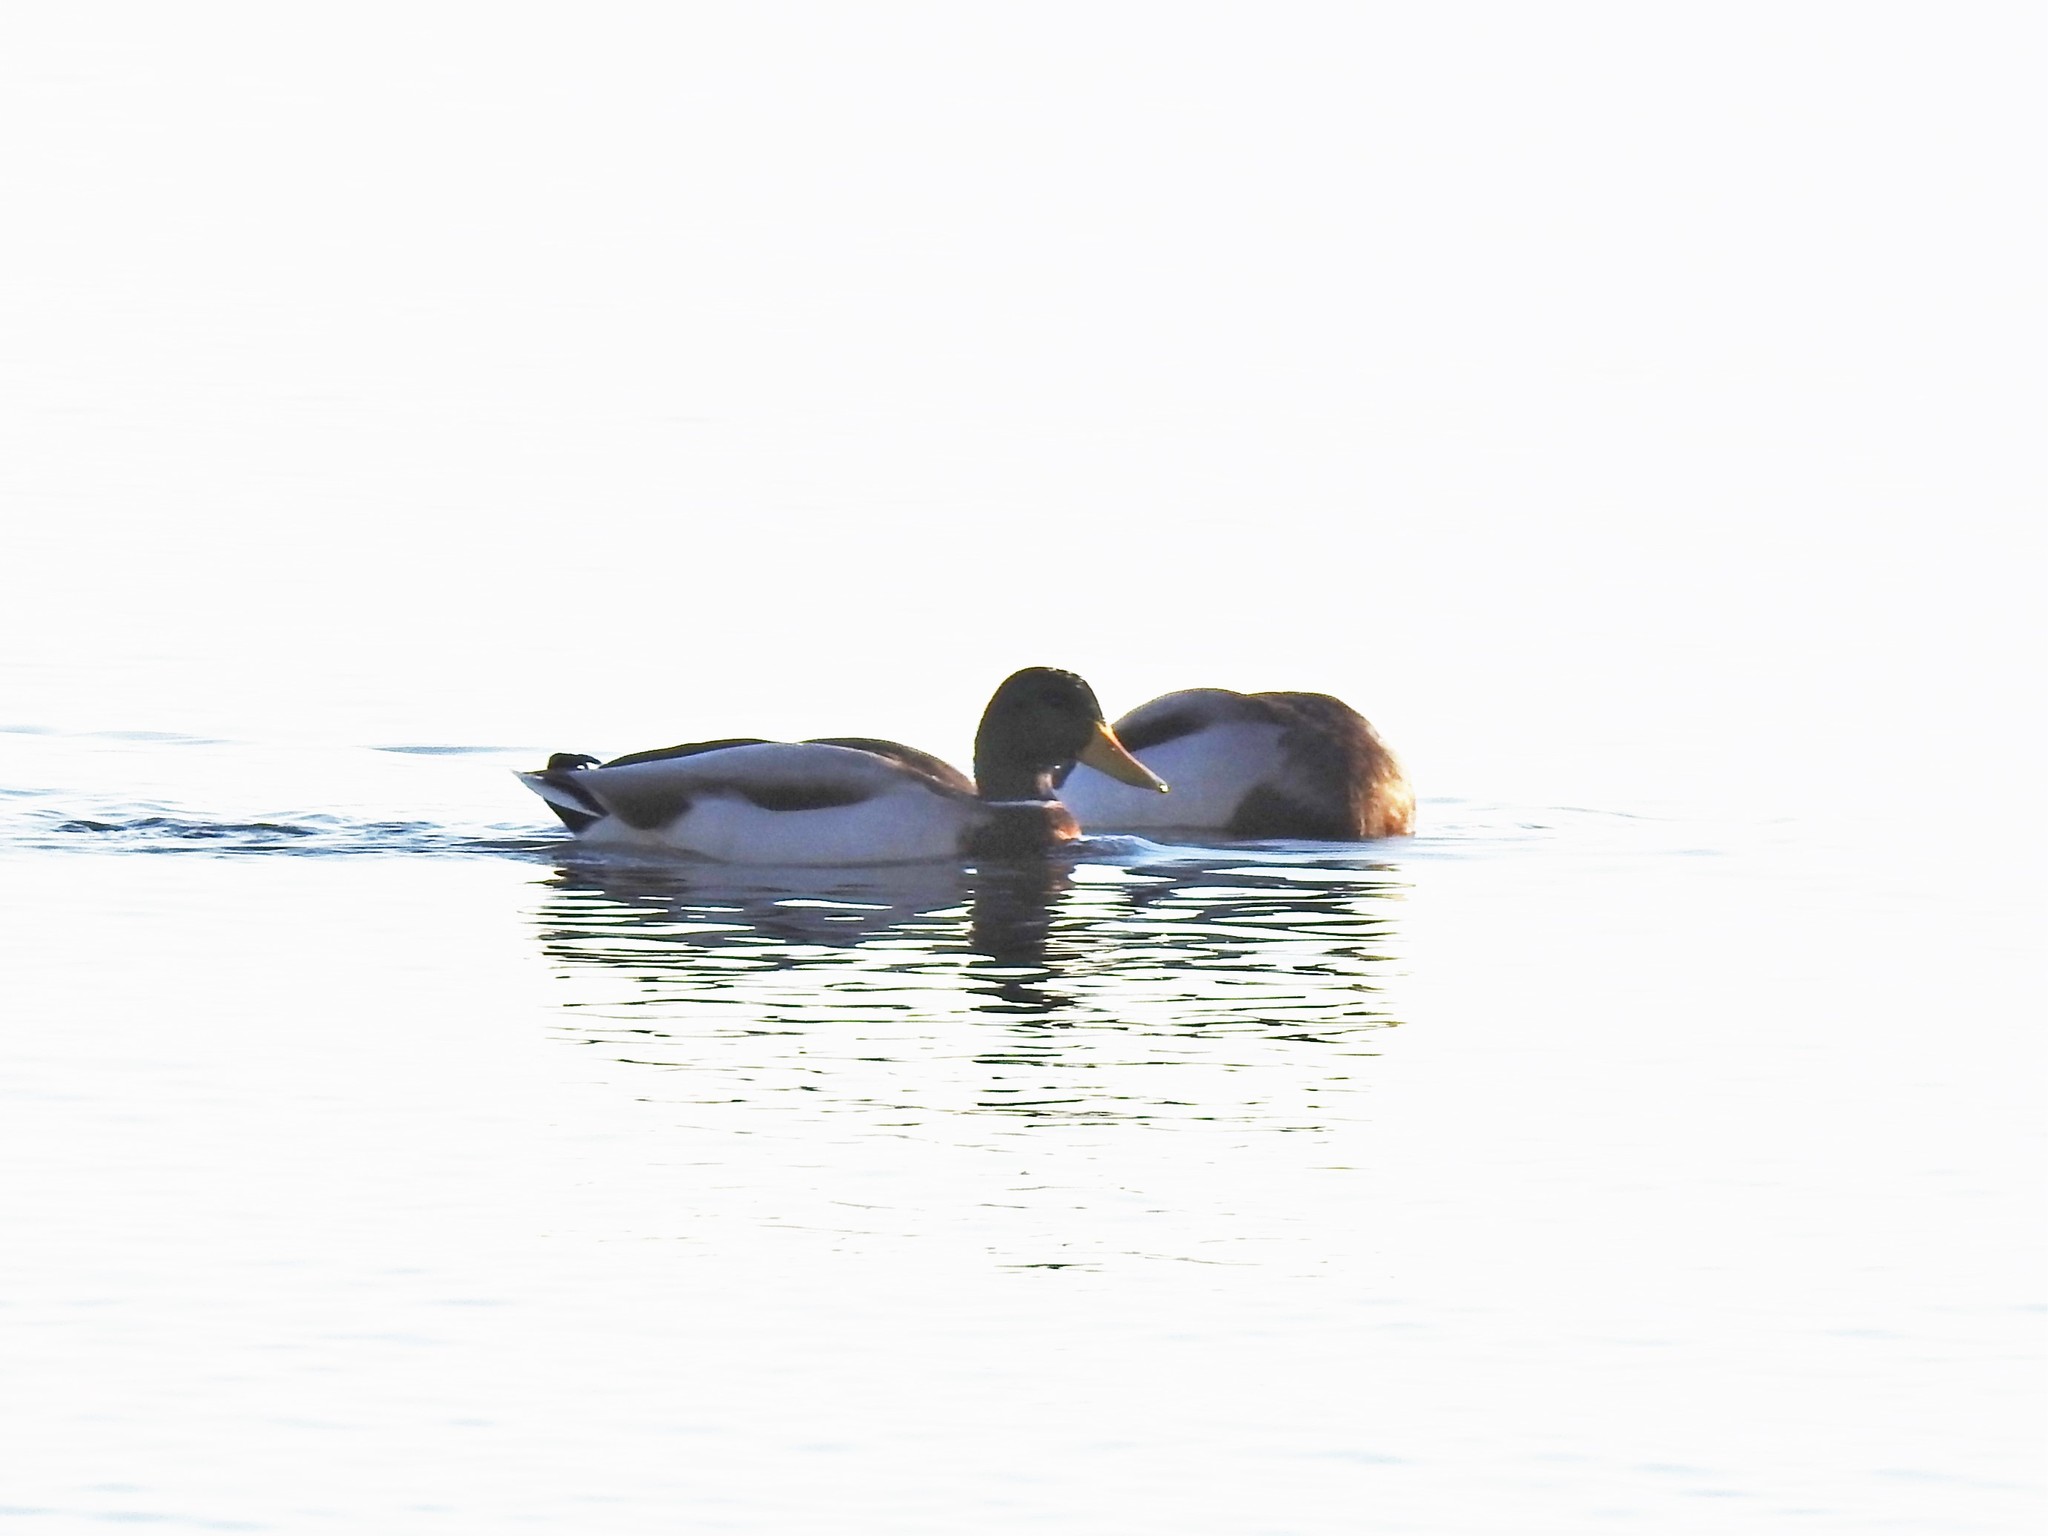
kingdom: Animalia
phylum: Chordata
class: Aves
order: Anseriformes
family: Anatidae
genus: Anas
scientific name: Anas platyrhynchos
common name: Mallard
